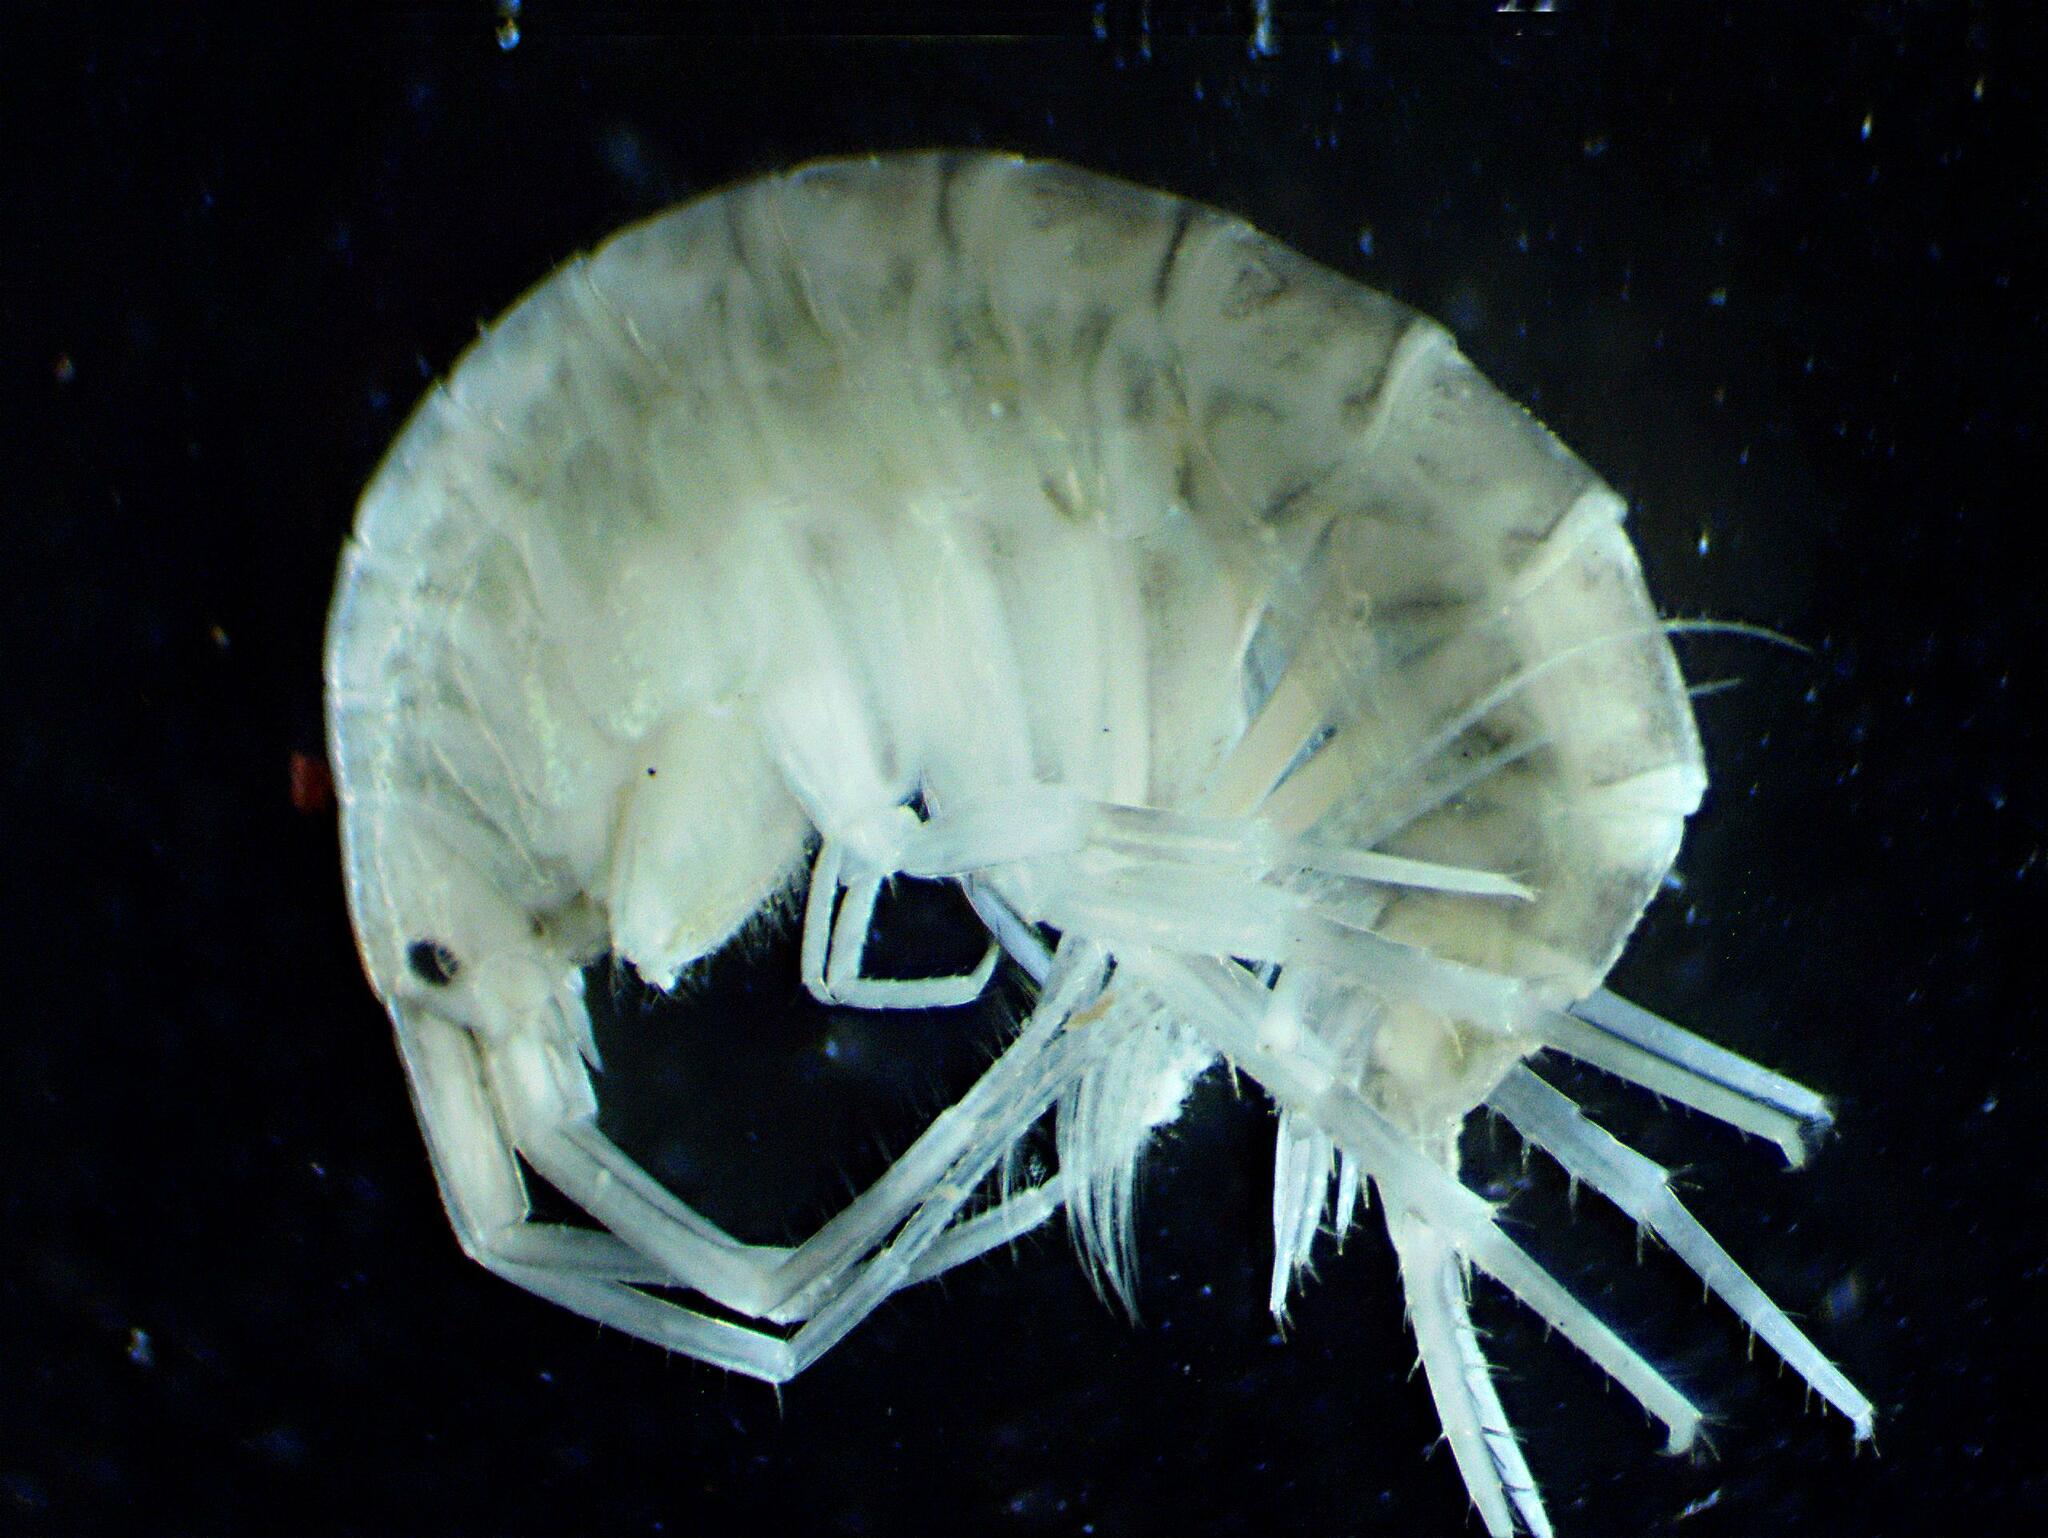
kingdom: Animalia
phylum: Arthropoda
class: Malacostraca
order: Amphipoda
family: Melitidae
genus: Melita
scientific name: Melita nitida
